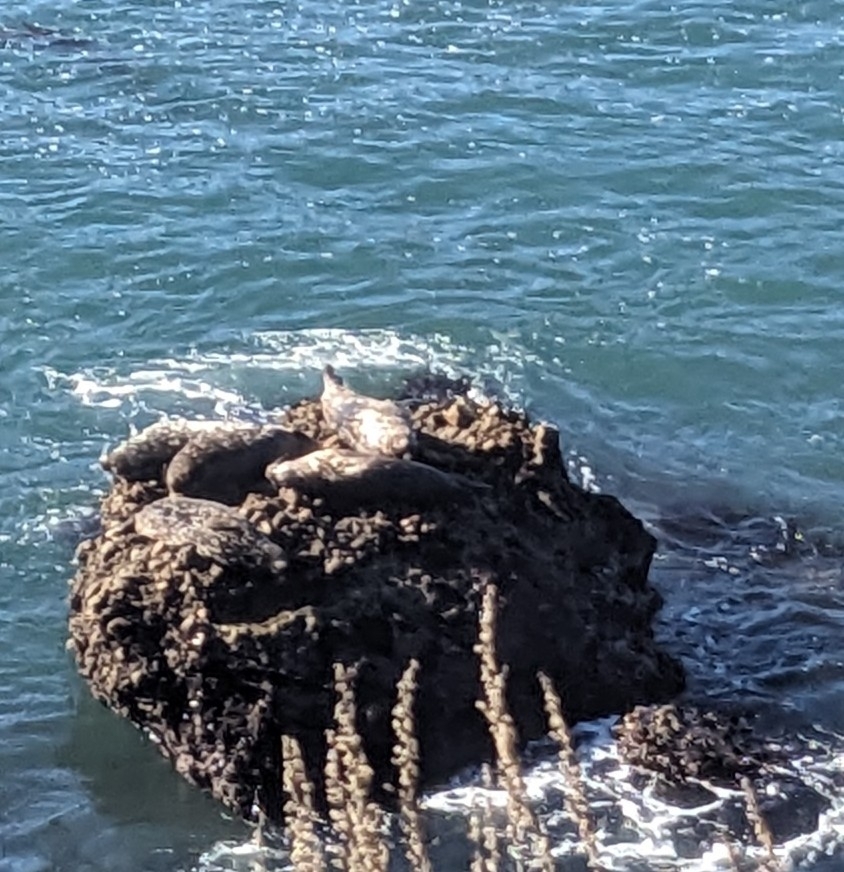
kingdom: Animalia
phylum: Chordata
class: Mammalia
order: Carnivora
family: Phocidae
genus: Phoca
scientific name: Phoca vitulina
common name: Harbor seal
